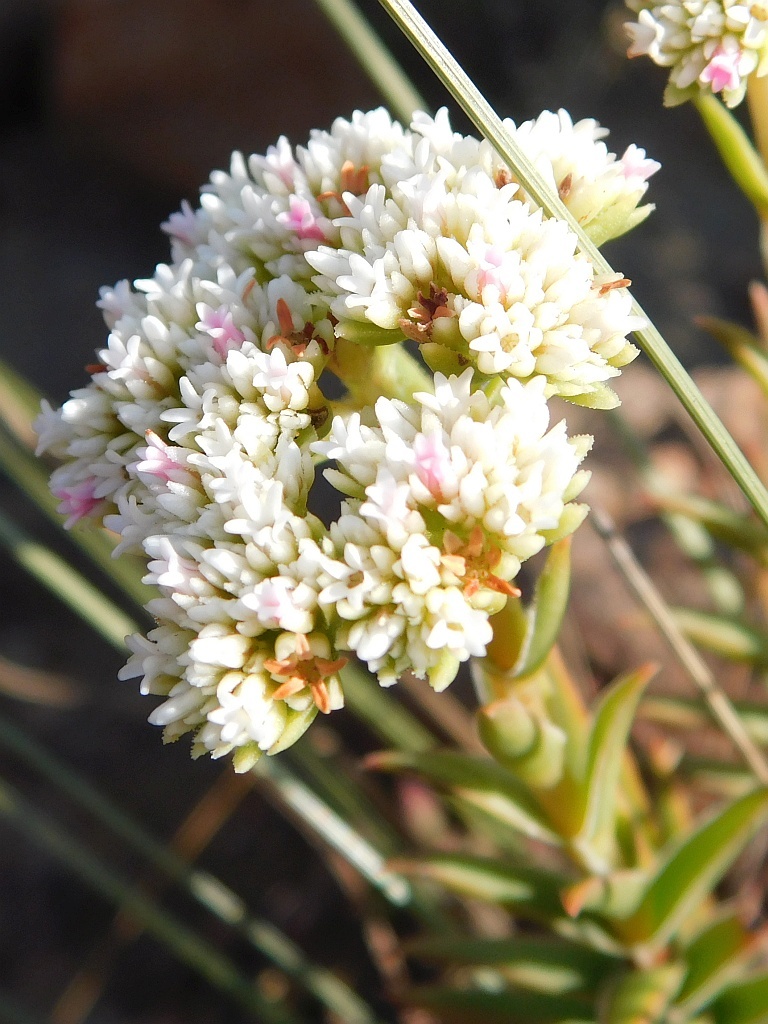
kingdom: Plantae
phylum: Tracheophyta
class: Magnoliopsida
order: Saxifragales
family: Crassulaceae
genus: Crassula
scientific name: Crassula fascicularis
